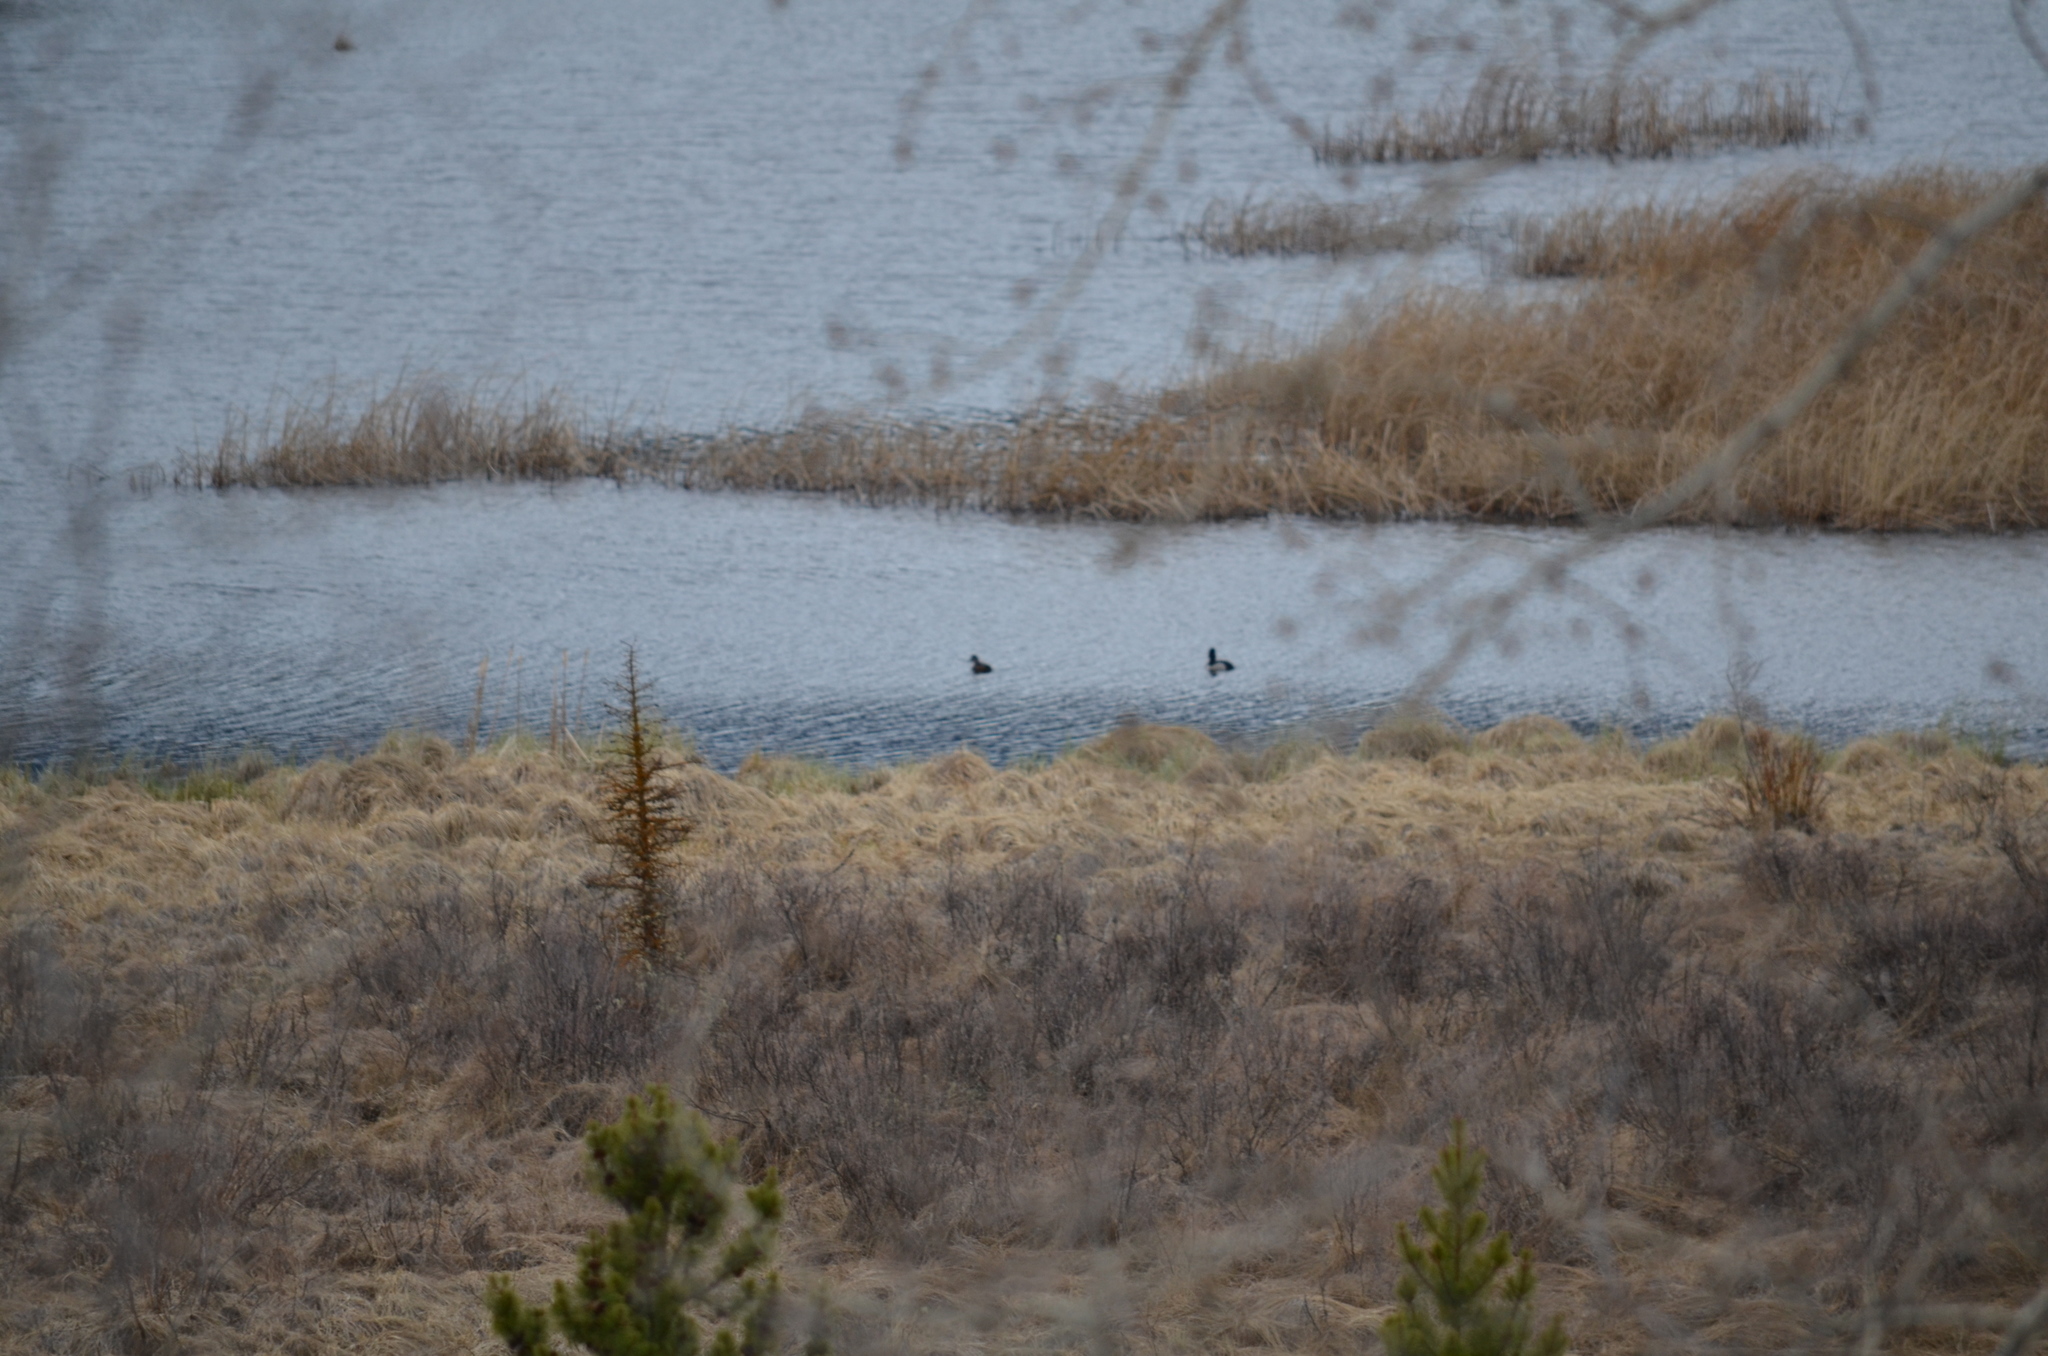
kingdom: Animalia
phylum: Chordata
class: Aves
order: Anseriformes
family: Anatidae
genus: Aythya
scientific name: Aythya collaris
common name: Ring-necked duck
